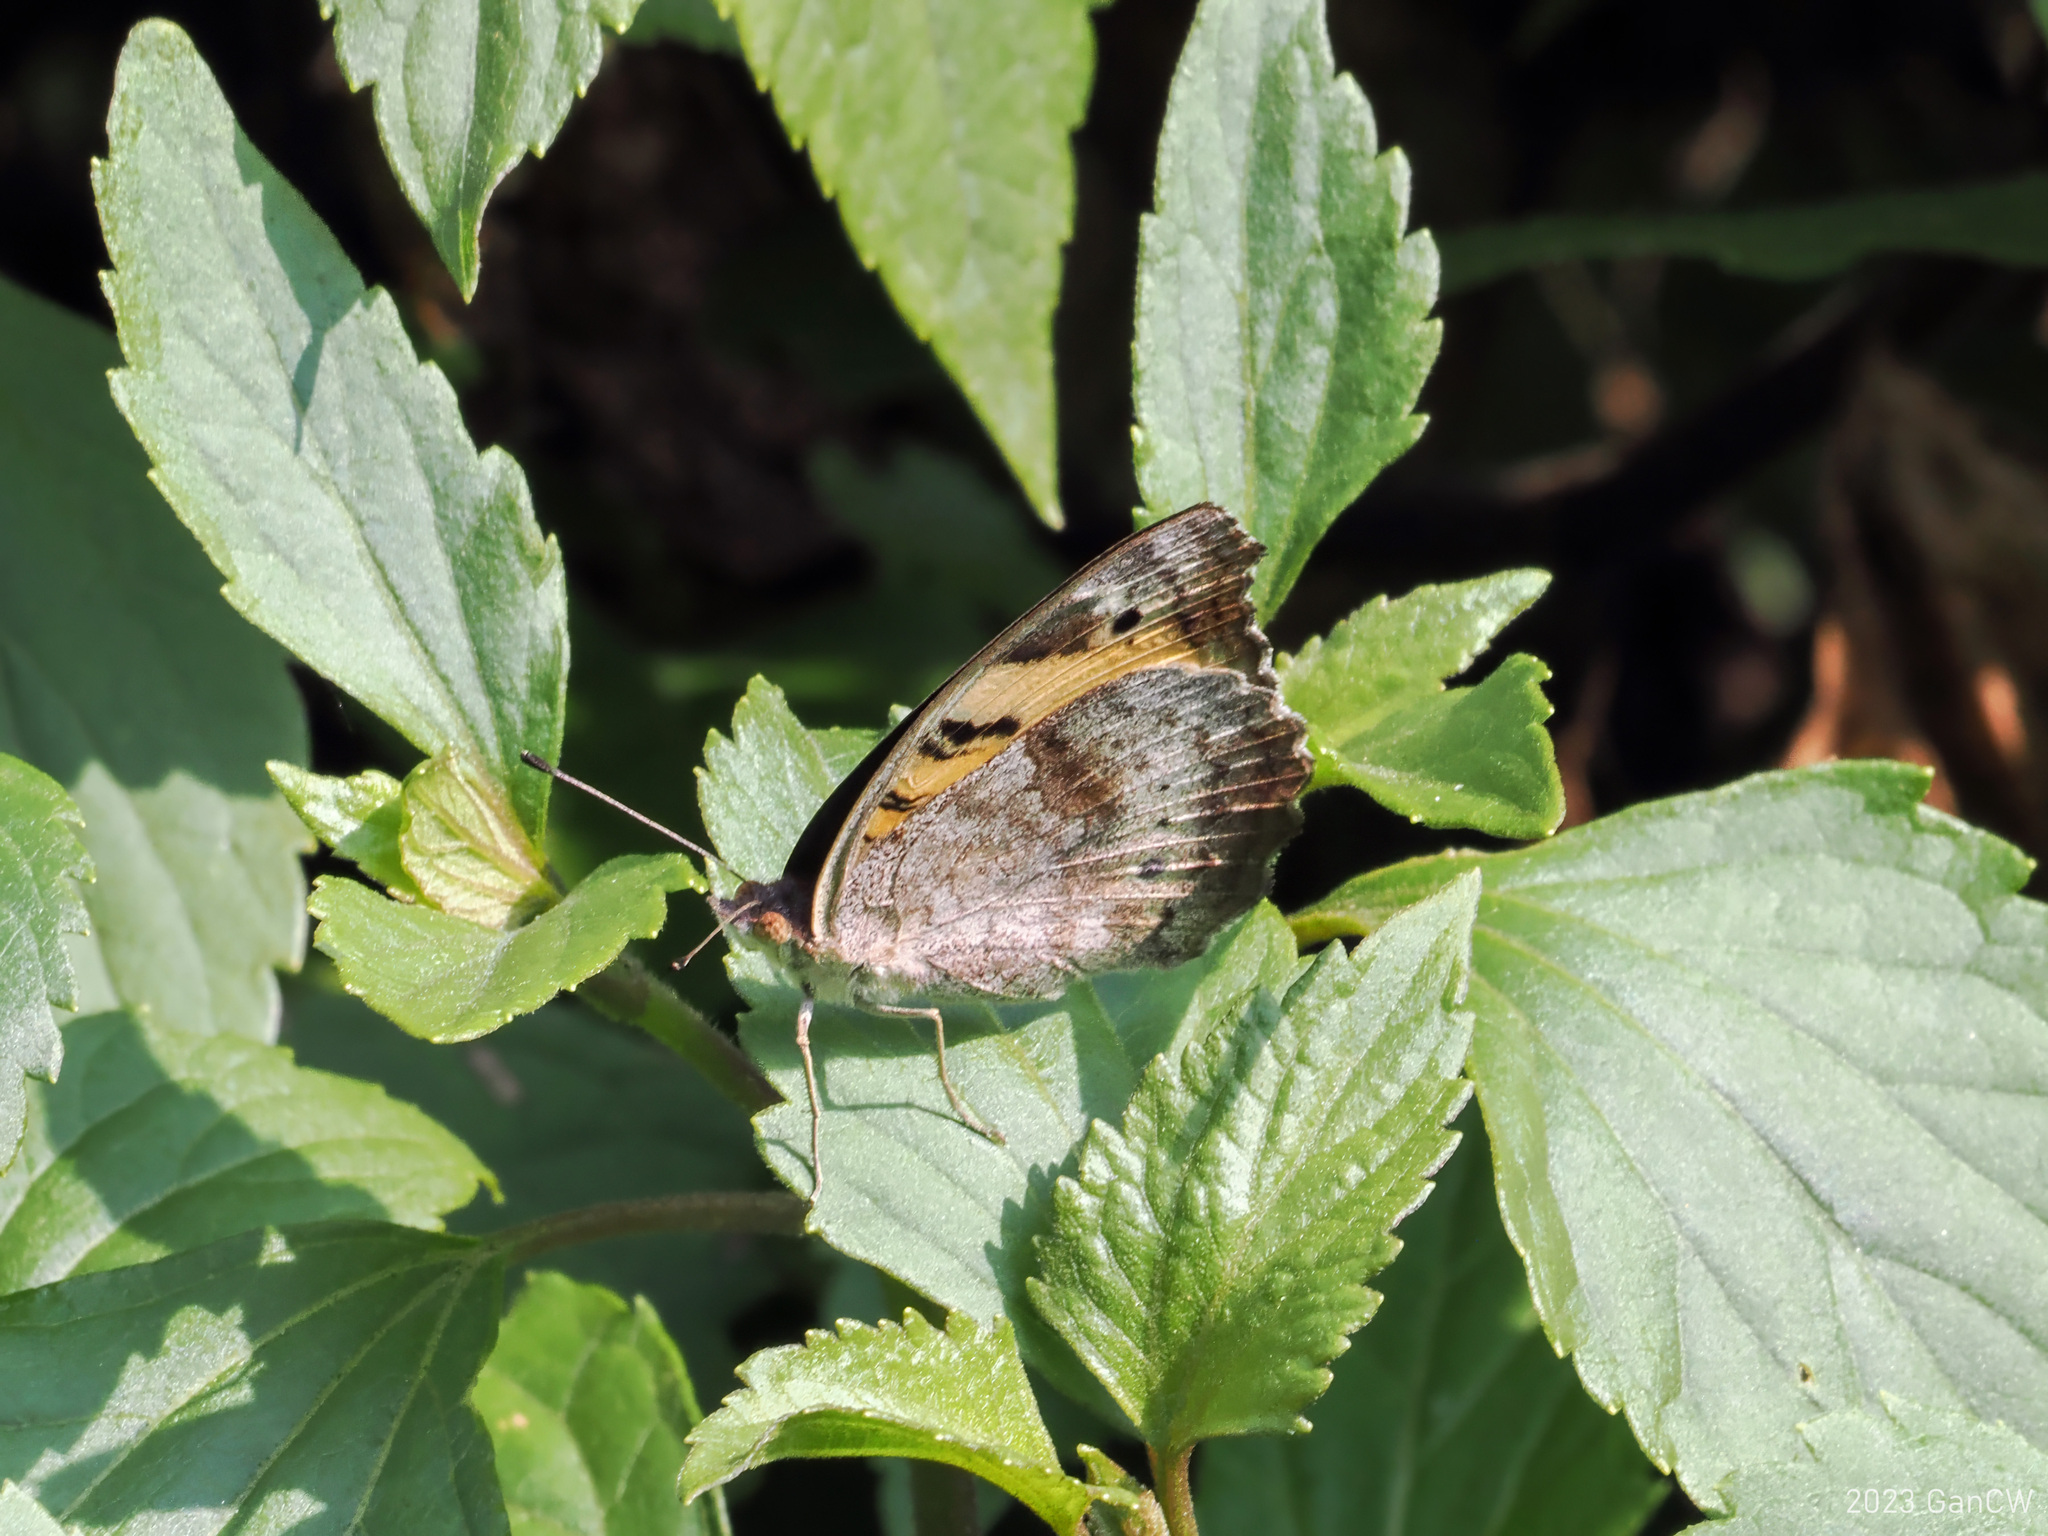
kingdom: Animalia
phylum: Arthropoda
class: Insecta
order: Lepidoptera
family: Nymphalidae
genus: Junonia
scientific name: Junonia hierta
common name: Yellow pansy
